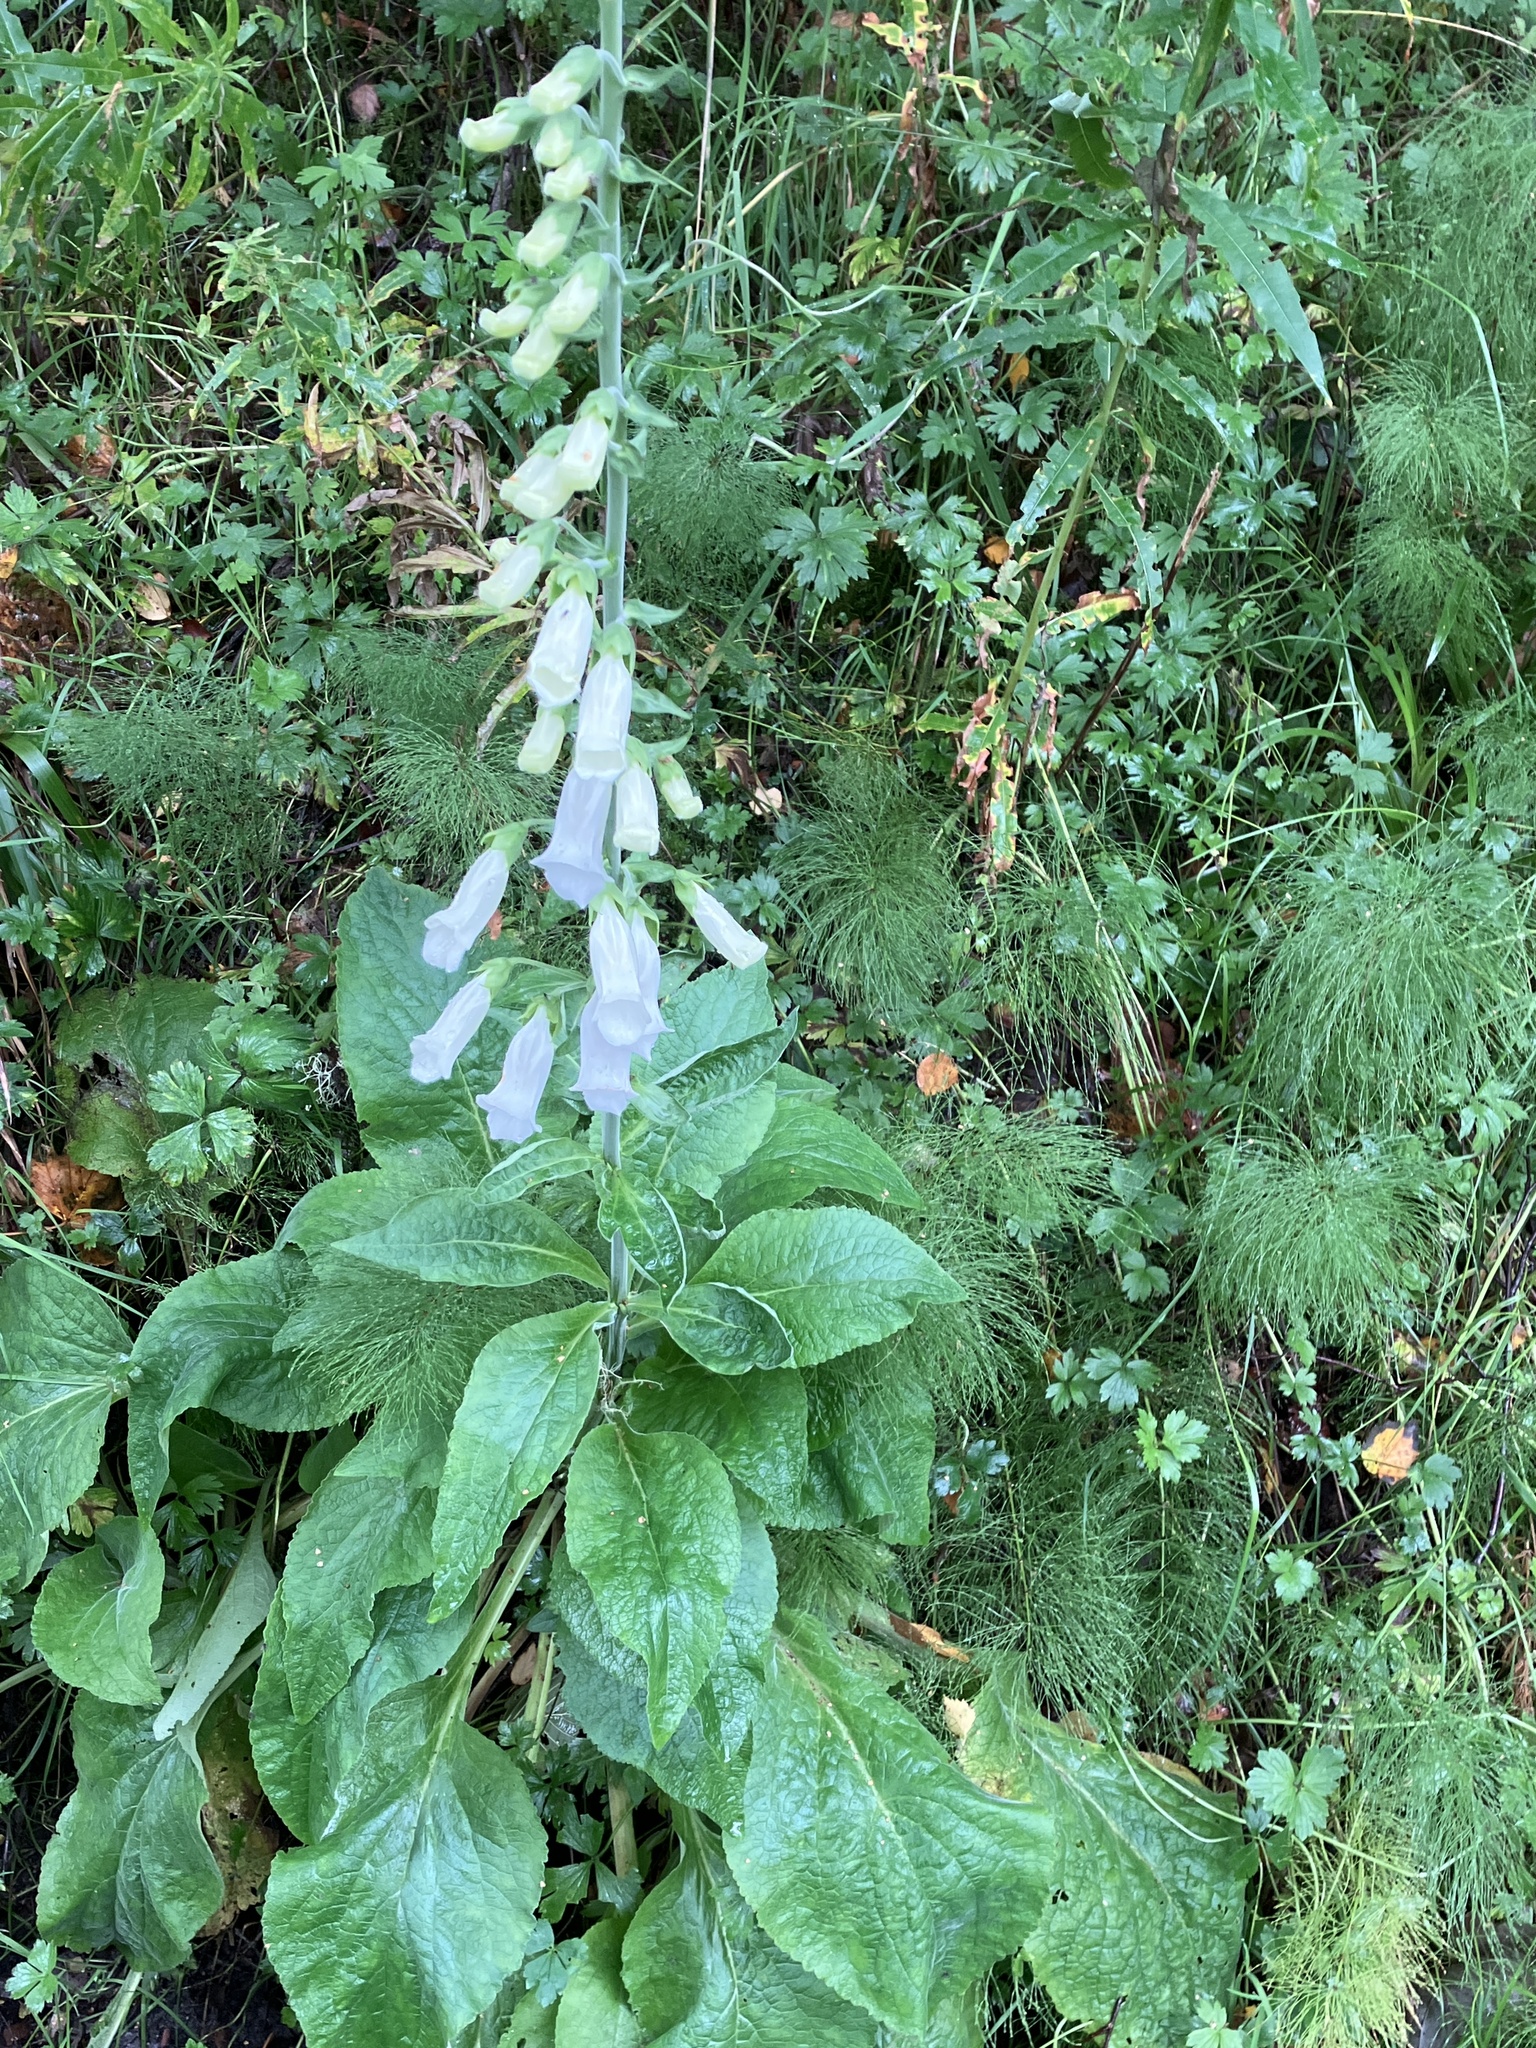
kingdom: Plantae
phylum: Tracheophyta
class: Magnoliopsida
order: Lamiales
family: Plantaginaceae
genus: Digitalis
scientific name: Digitalis purpurea
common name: Foxglove
